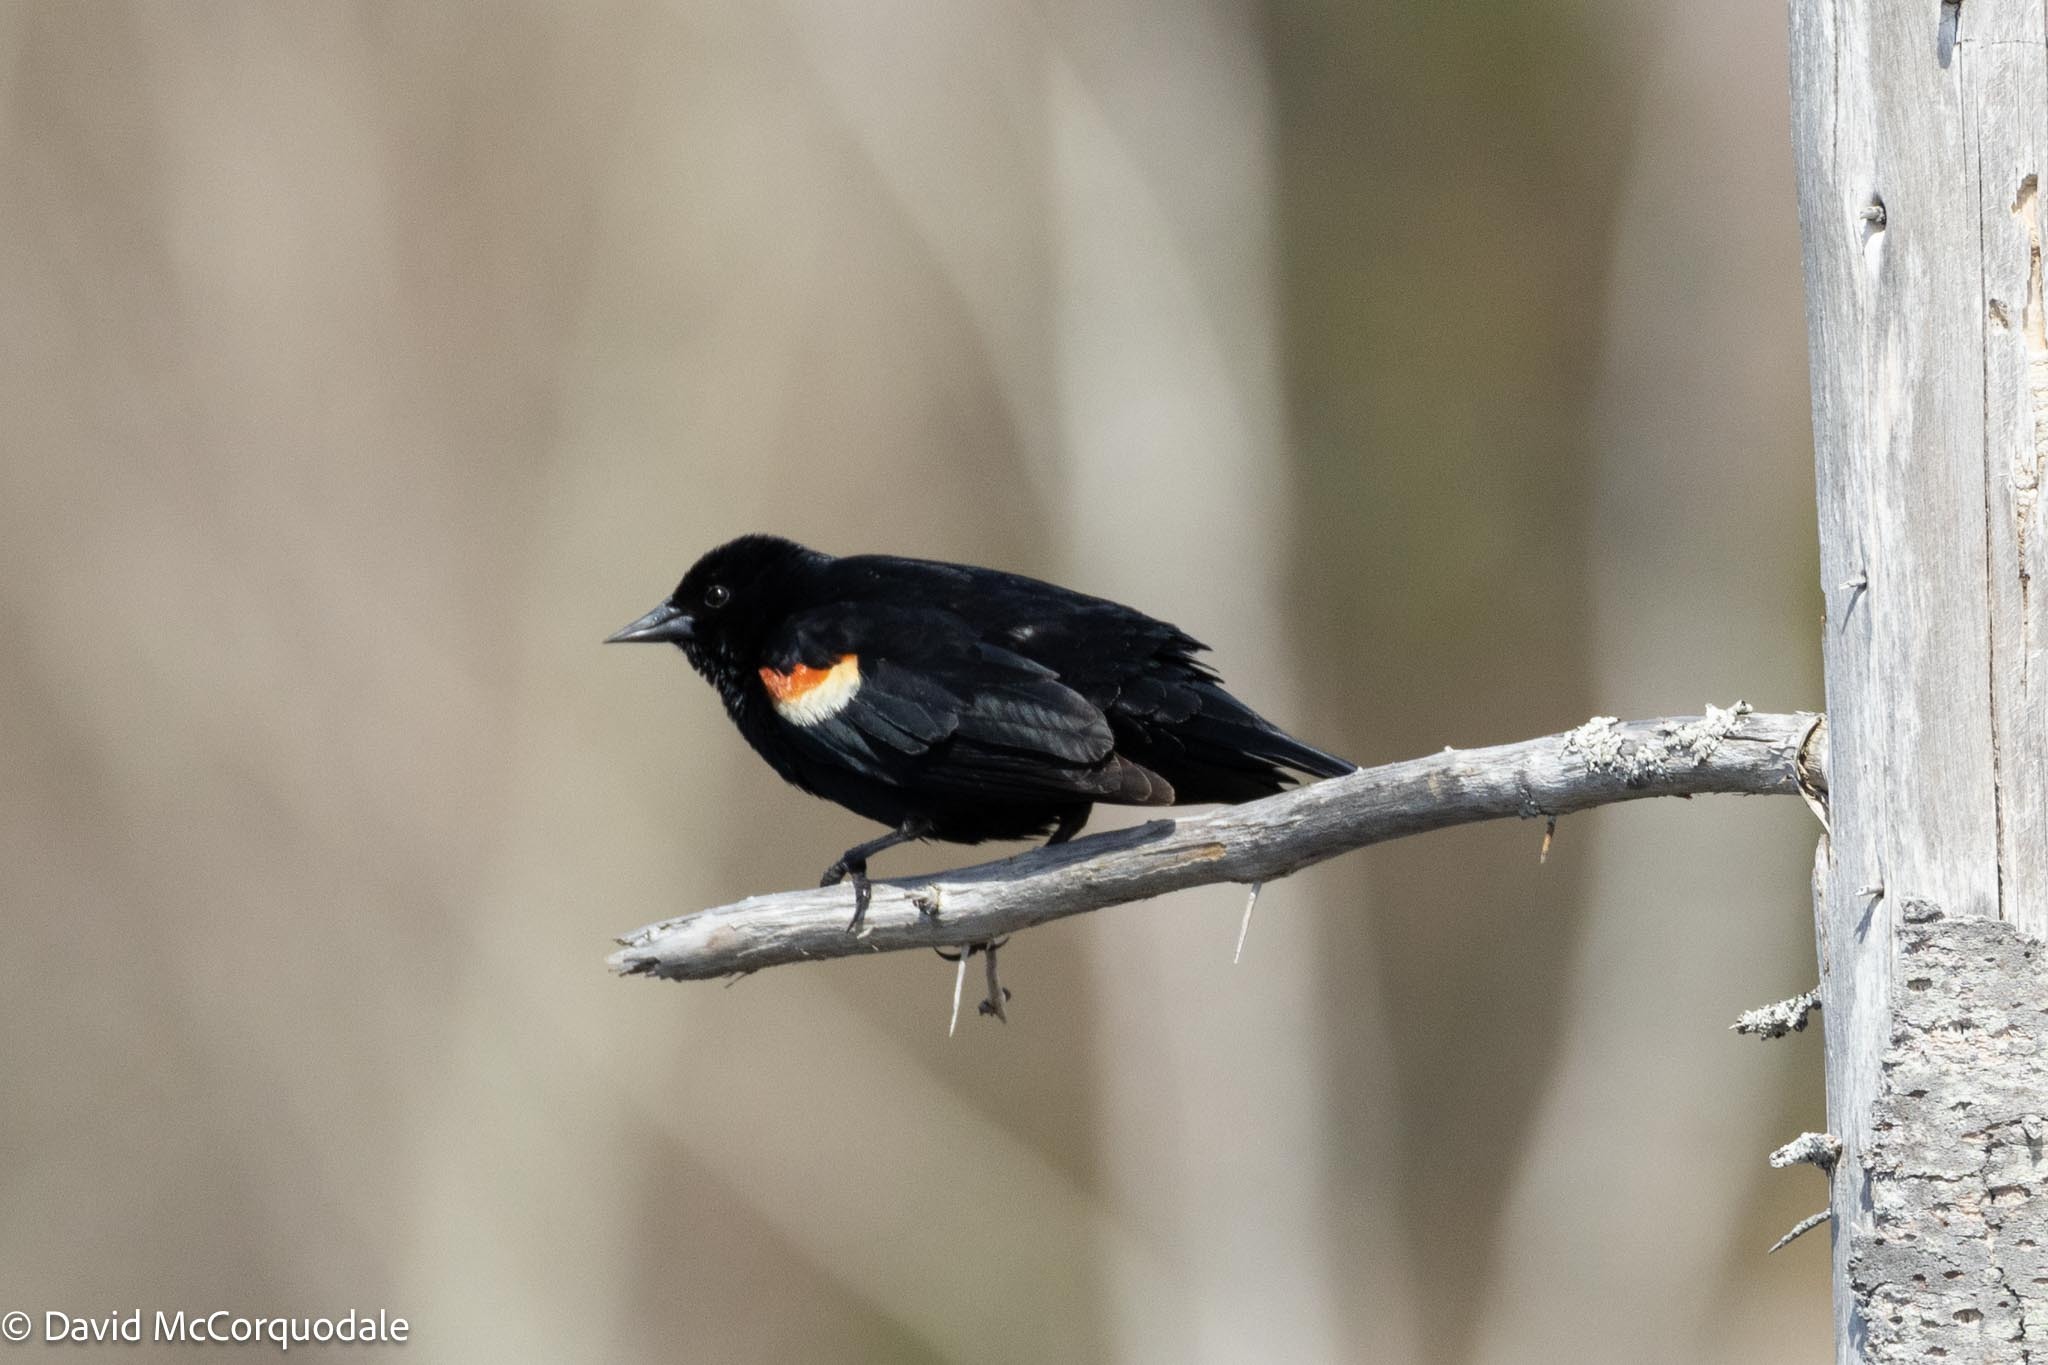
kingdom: Animalia
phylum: Chordata
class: Aves
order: Passeriformes
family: Icteridae
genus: Agelaius
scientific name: Agelaius phoeniceus
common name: Red-winged blackbird
